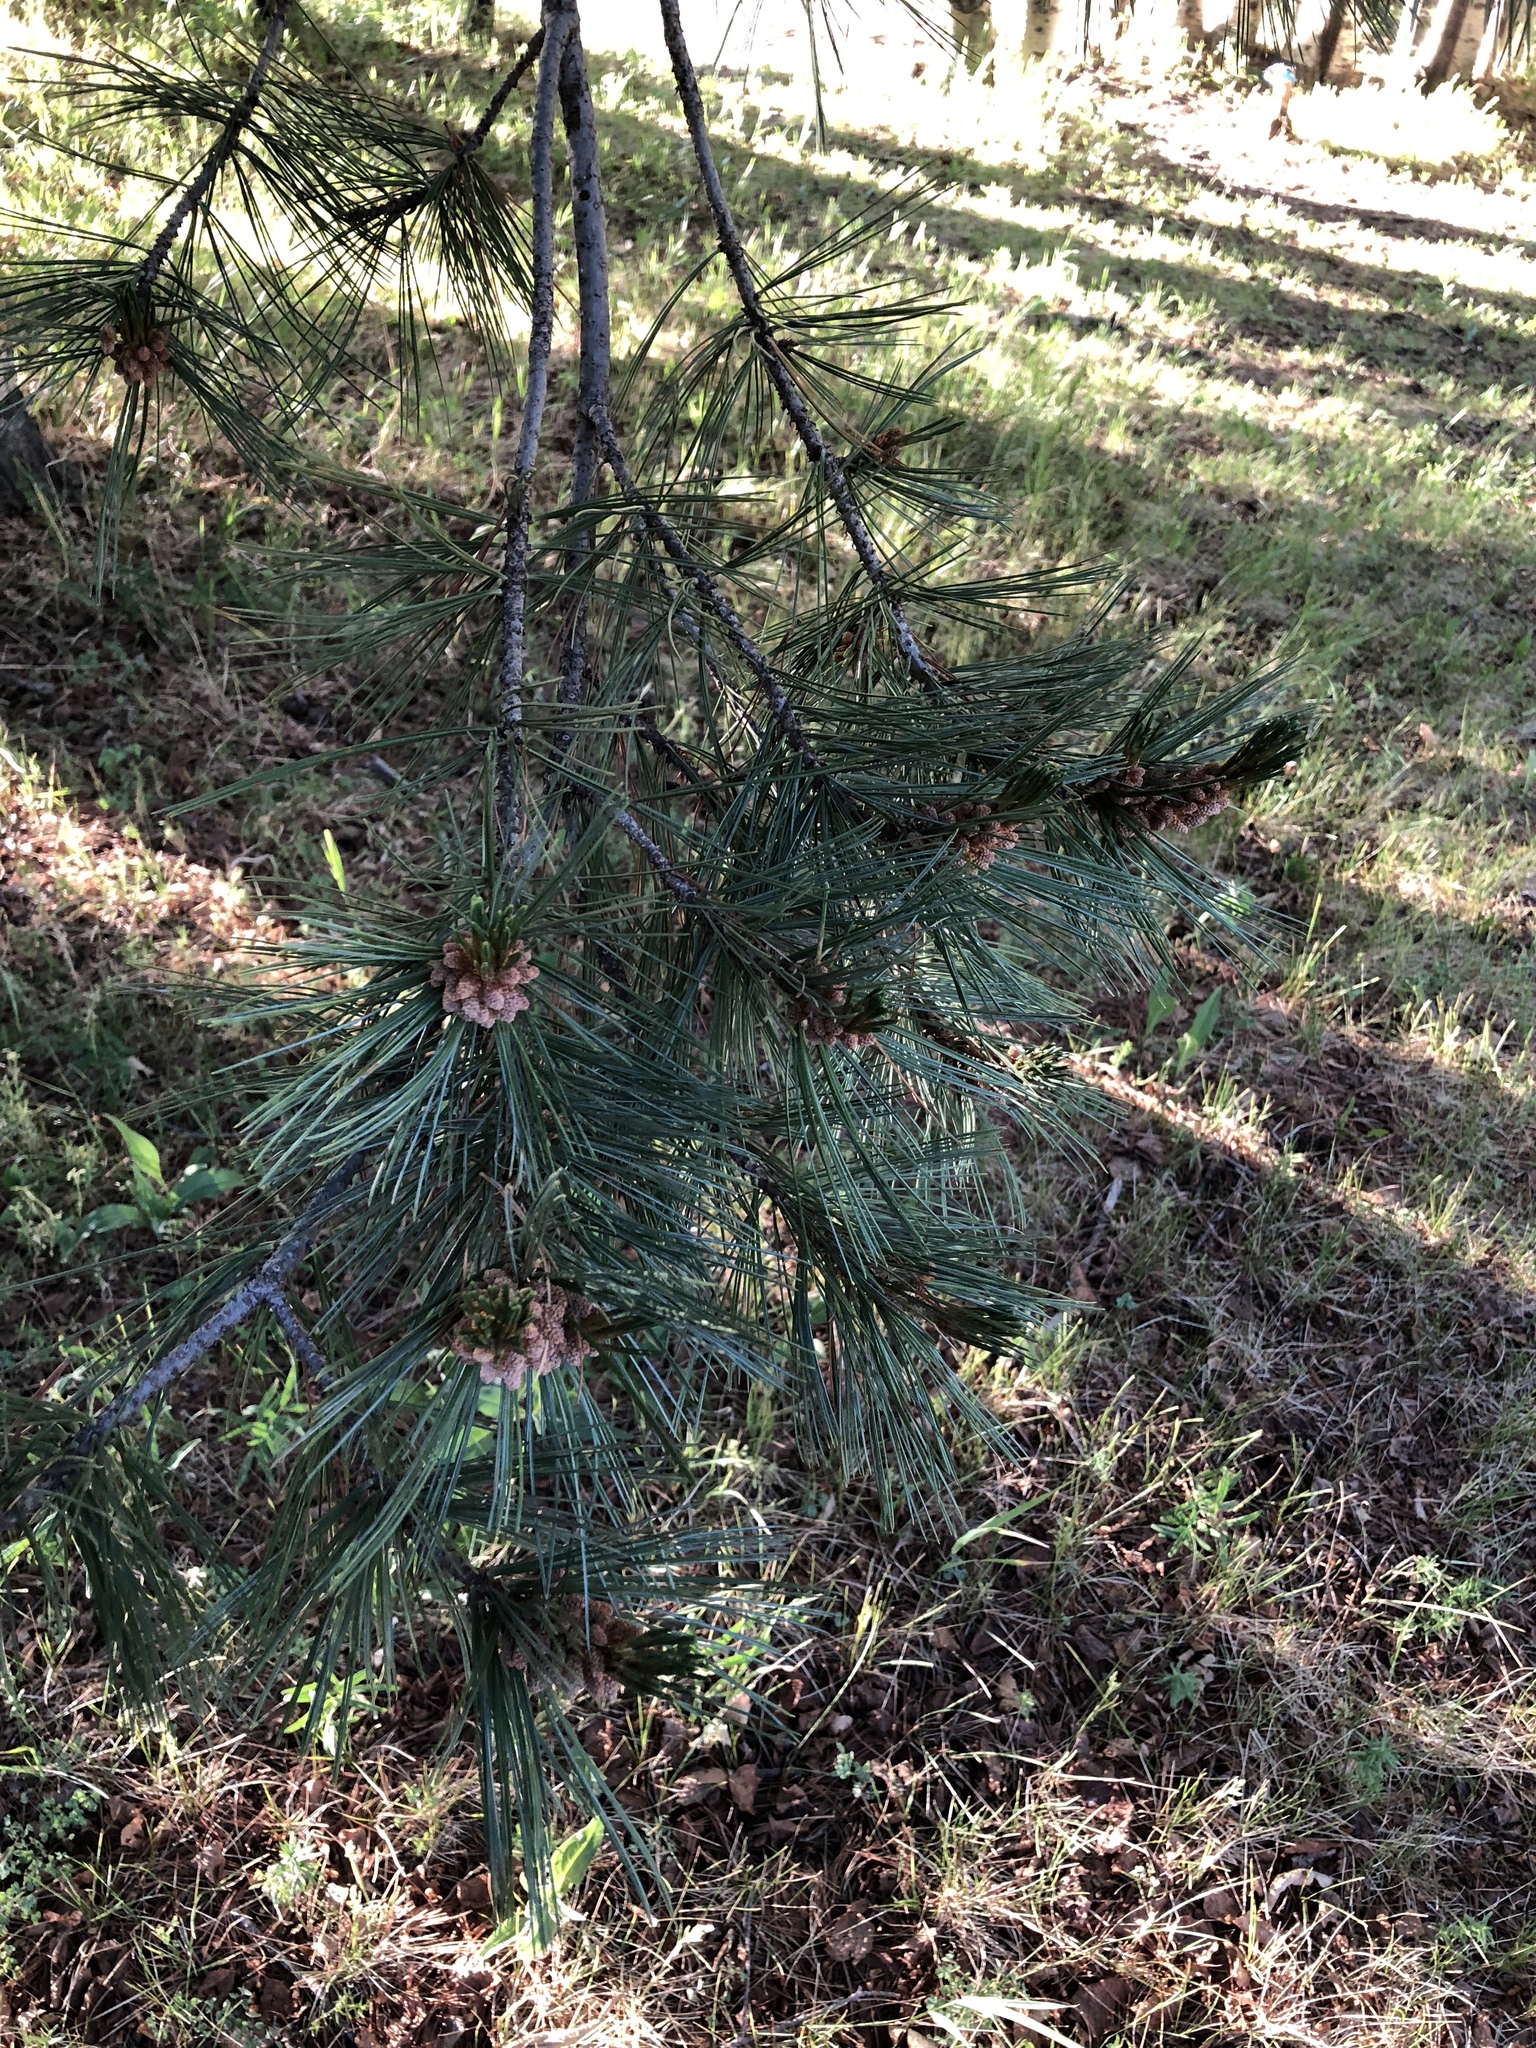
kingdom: Plantae
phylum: Tracheophyta
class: Pinopsida
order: Pinales
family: Pinaceae
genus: Pinus
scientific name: Pinus strobiformis
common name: Southwestern white pine
